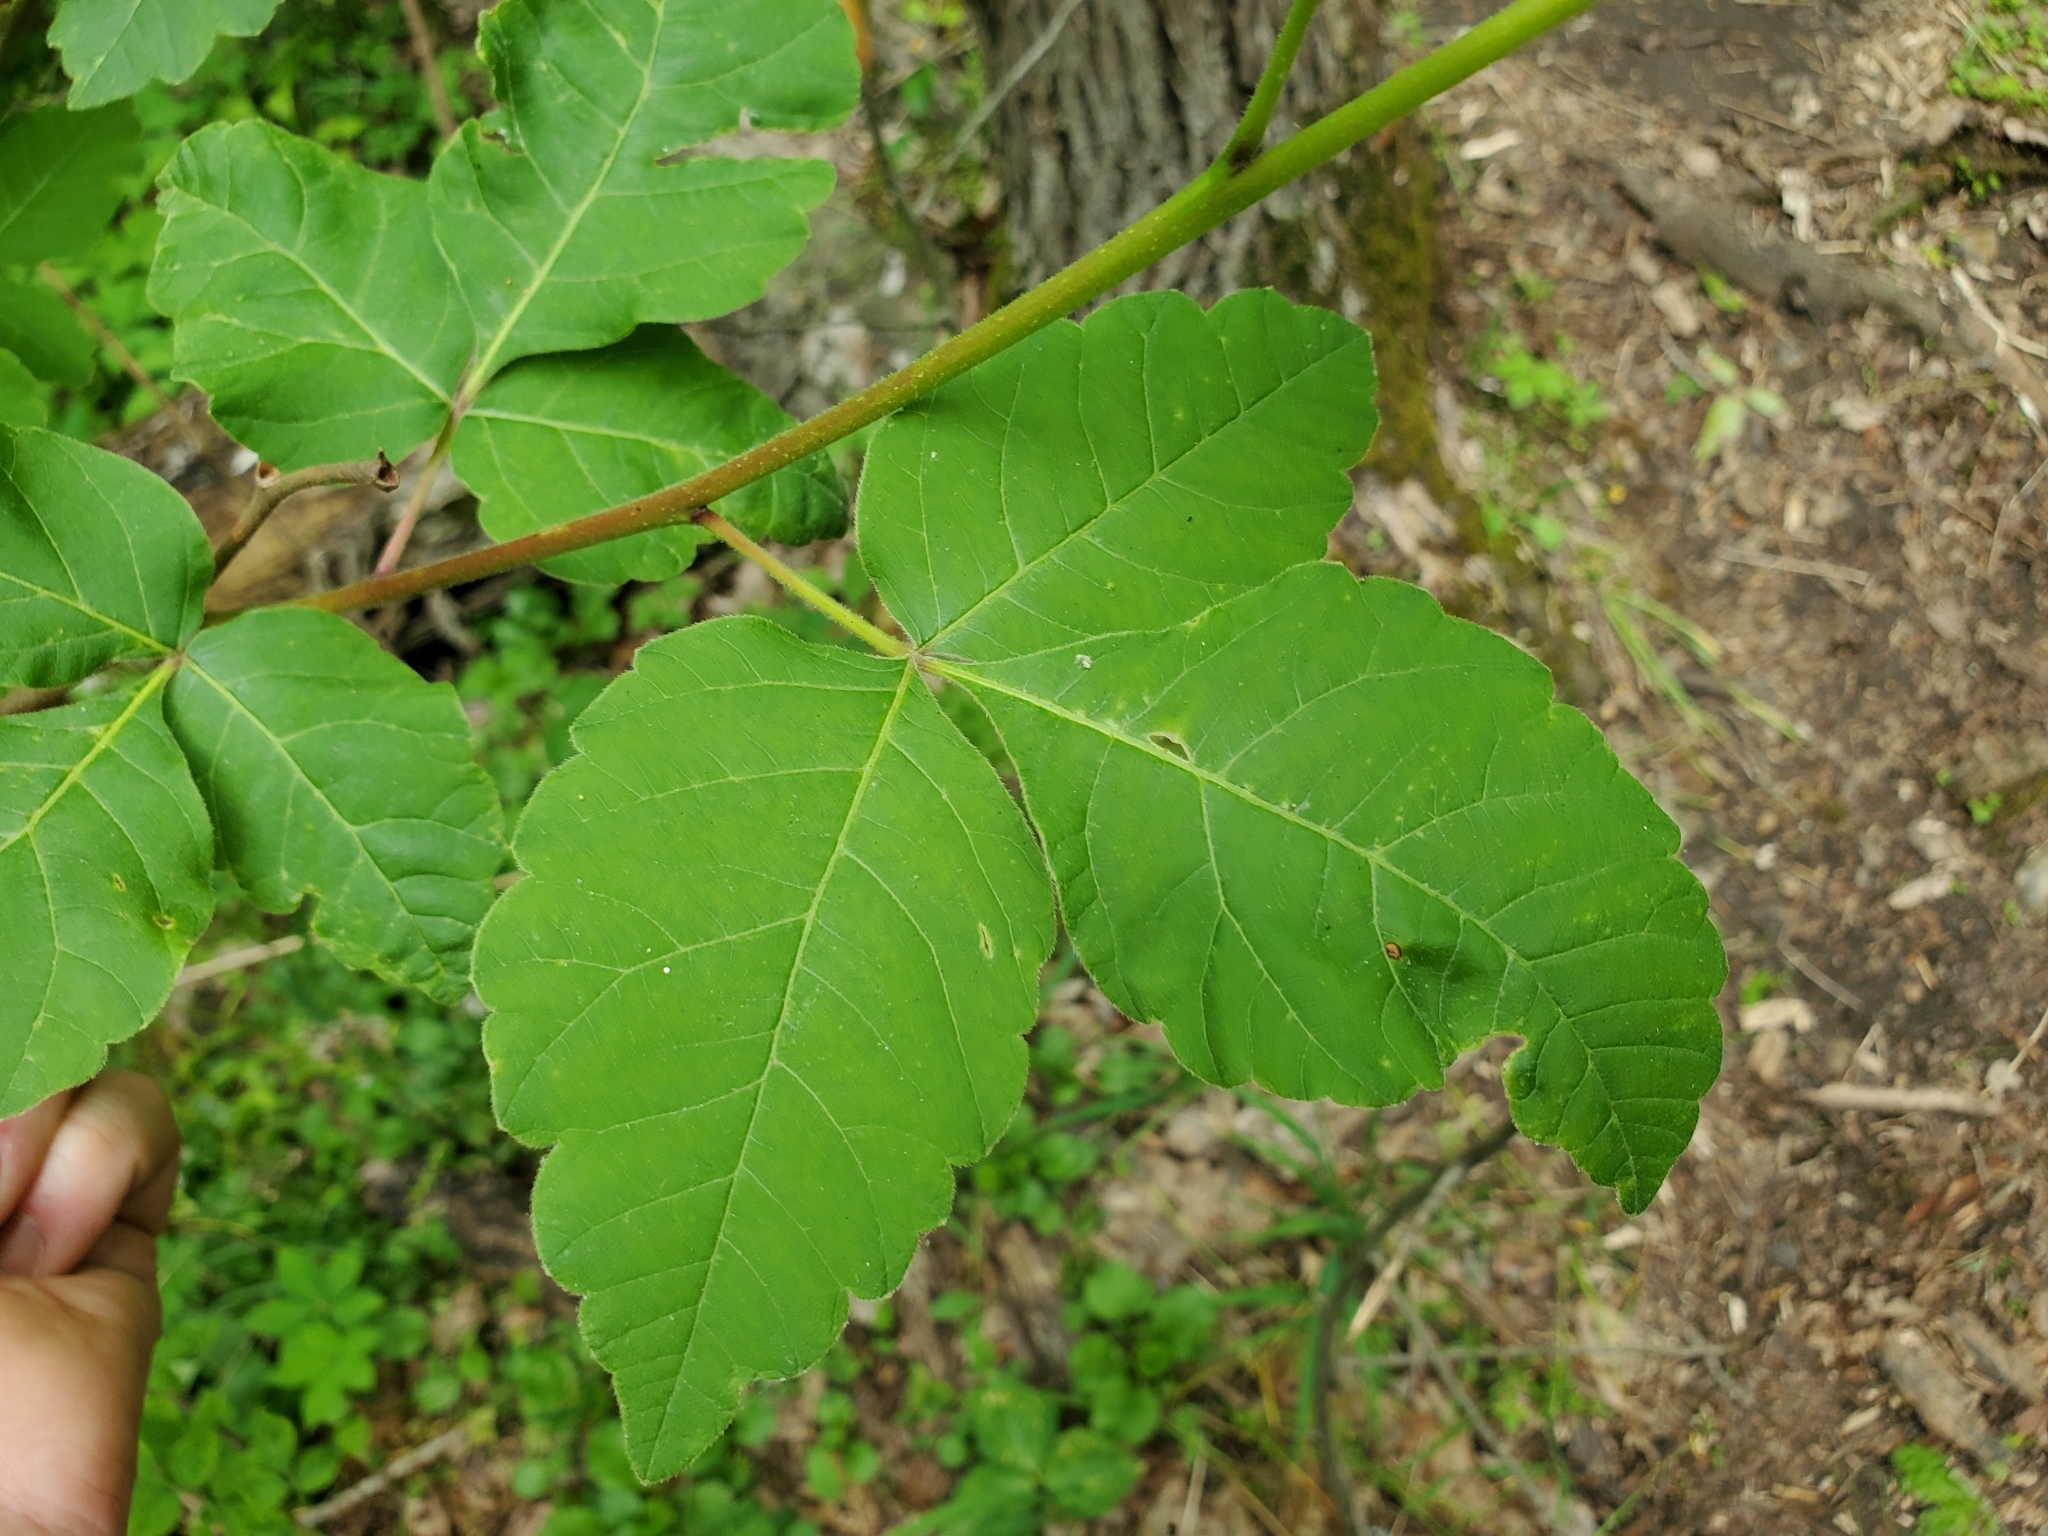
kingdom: Plantae
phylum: Tracheophyta
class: Magnoliopsida
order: Sapindales
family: Anacardiaceae
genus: Rhus
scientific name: Rhus aromatica
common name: Aromatic sumac
